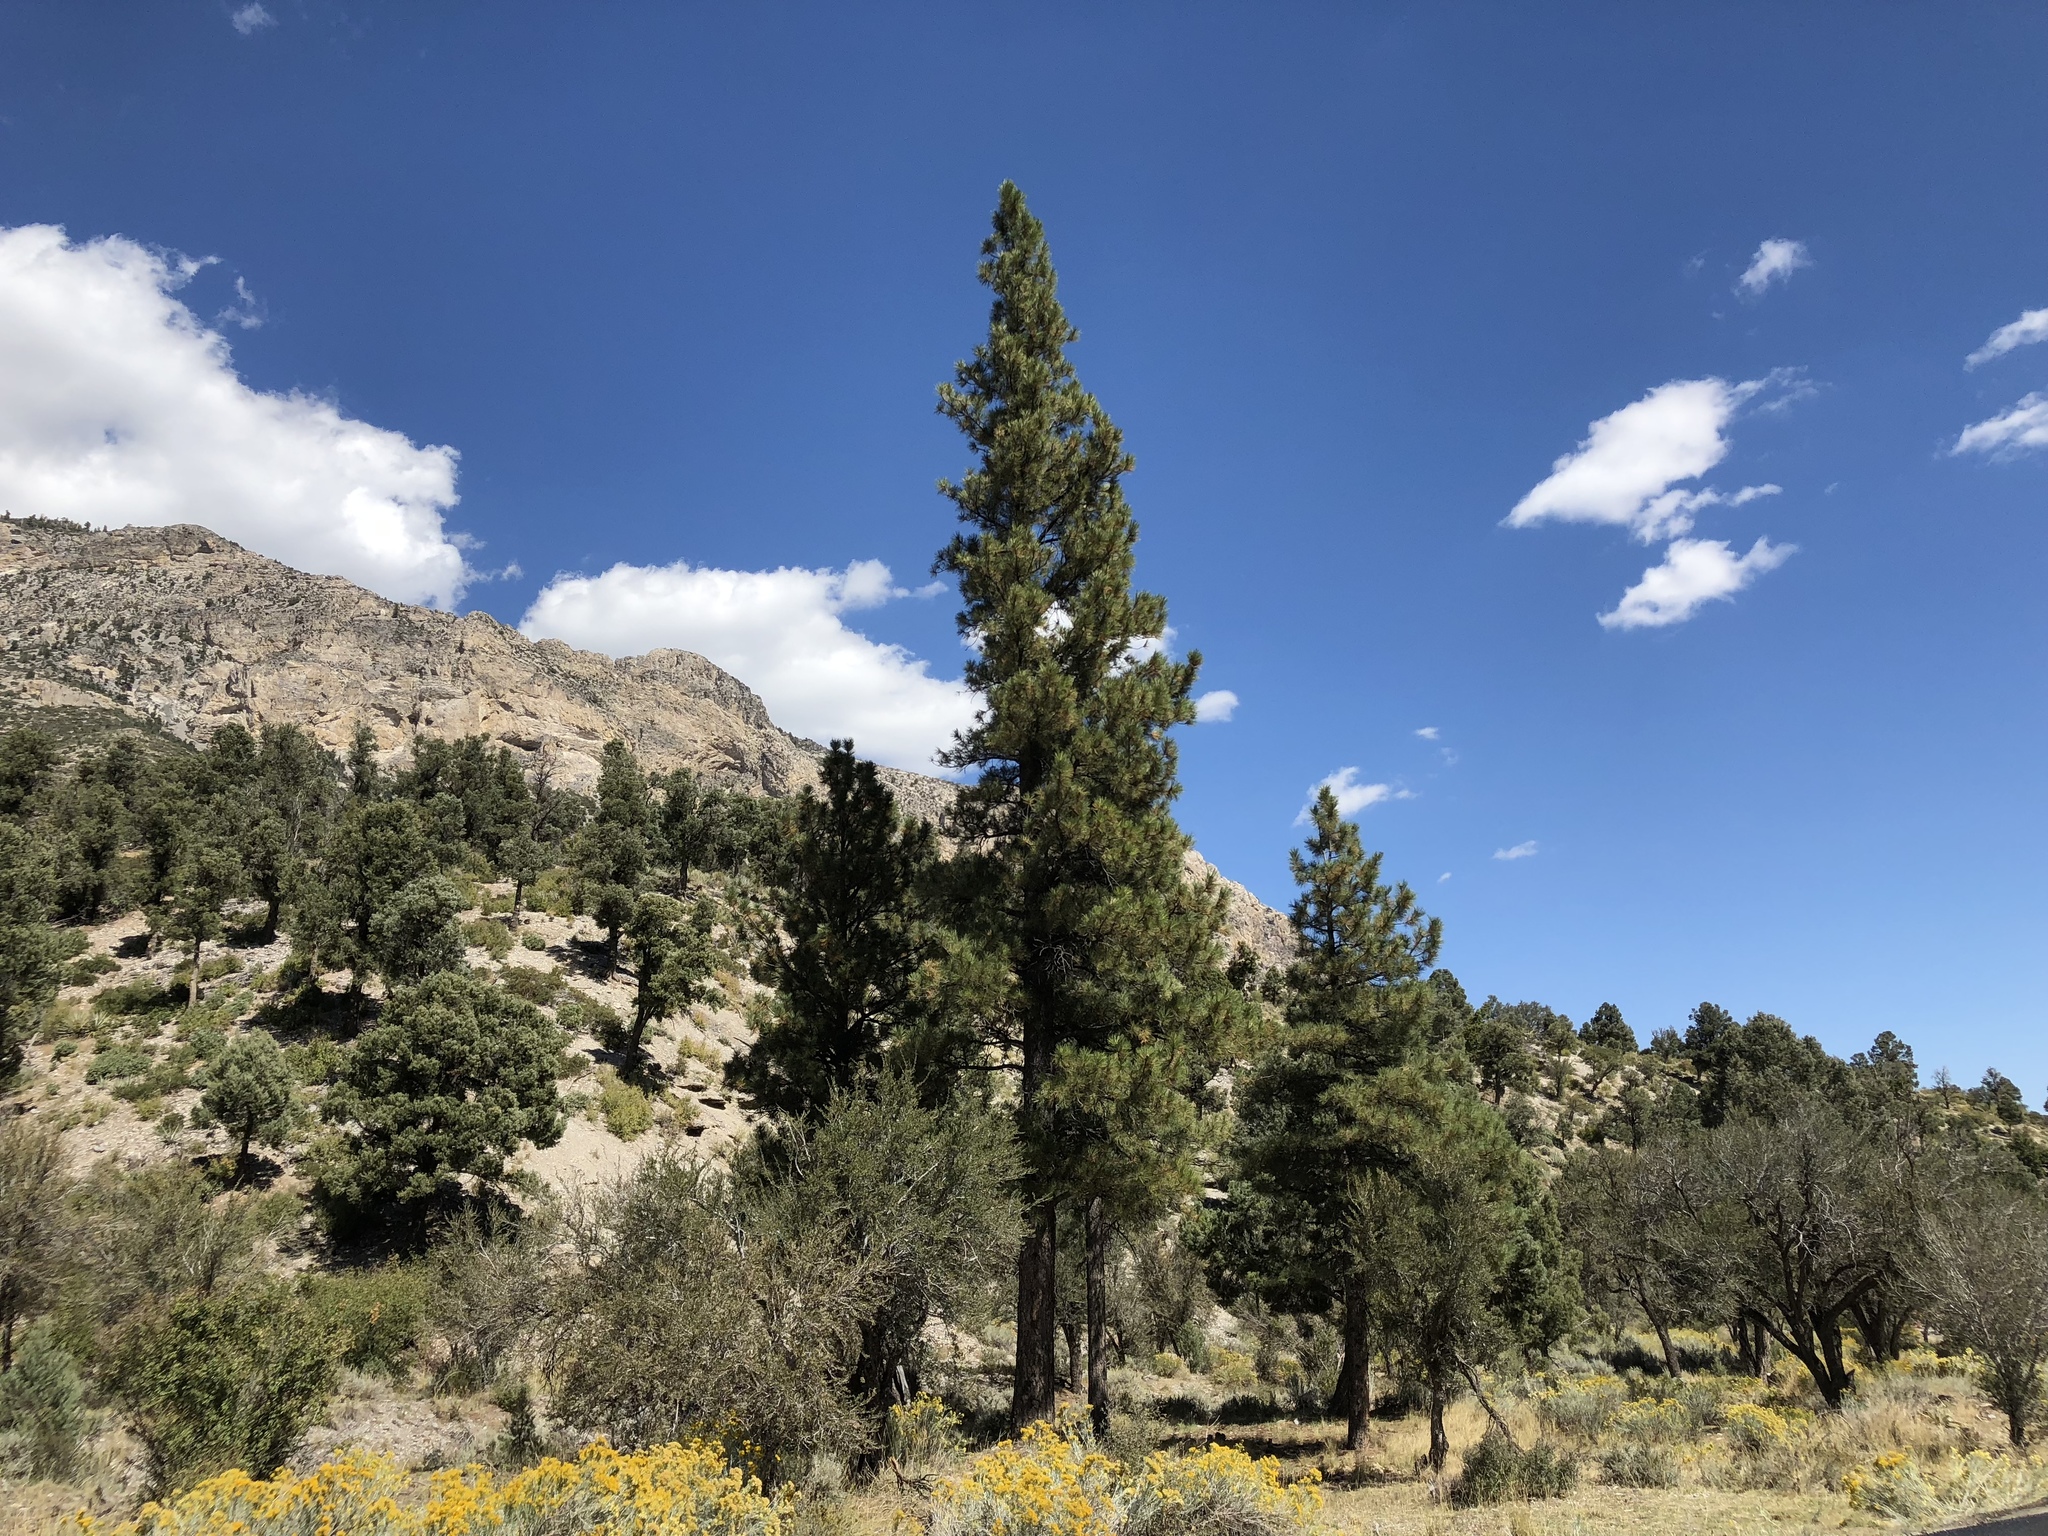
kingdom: Plantae
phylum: Tracheophyta
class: Pinopsida
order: Pinales
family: Pinaceae
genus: Pinus
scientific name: Pinus ponderosa
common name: Western yellow-pine
